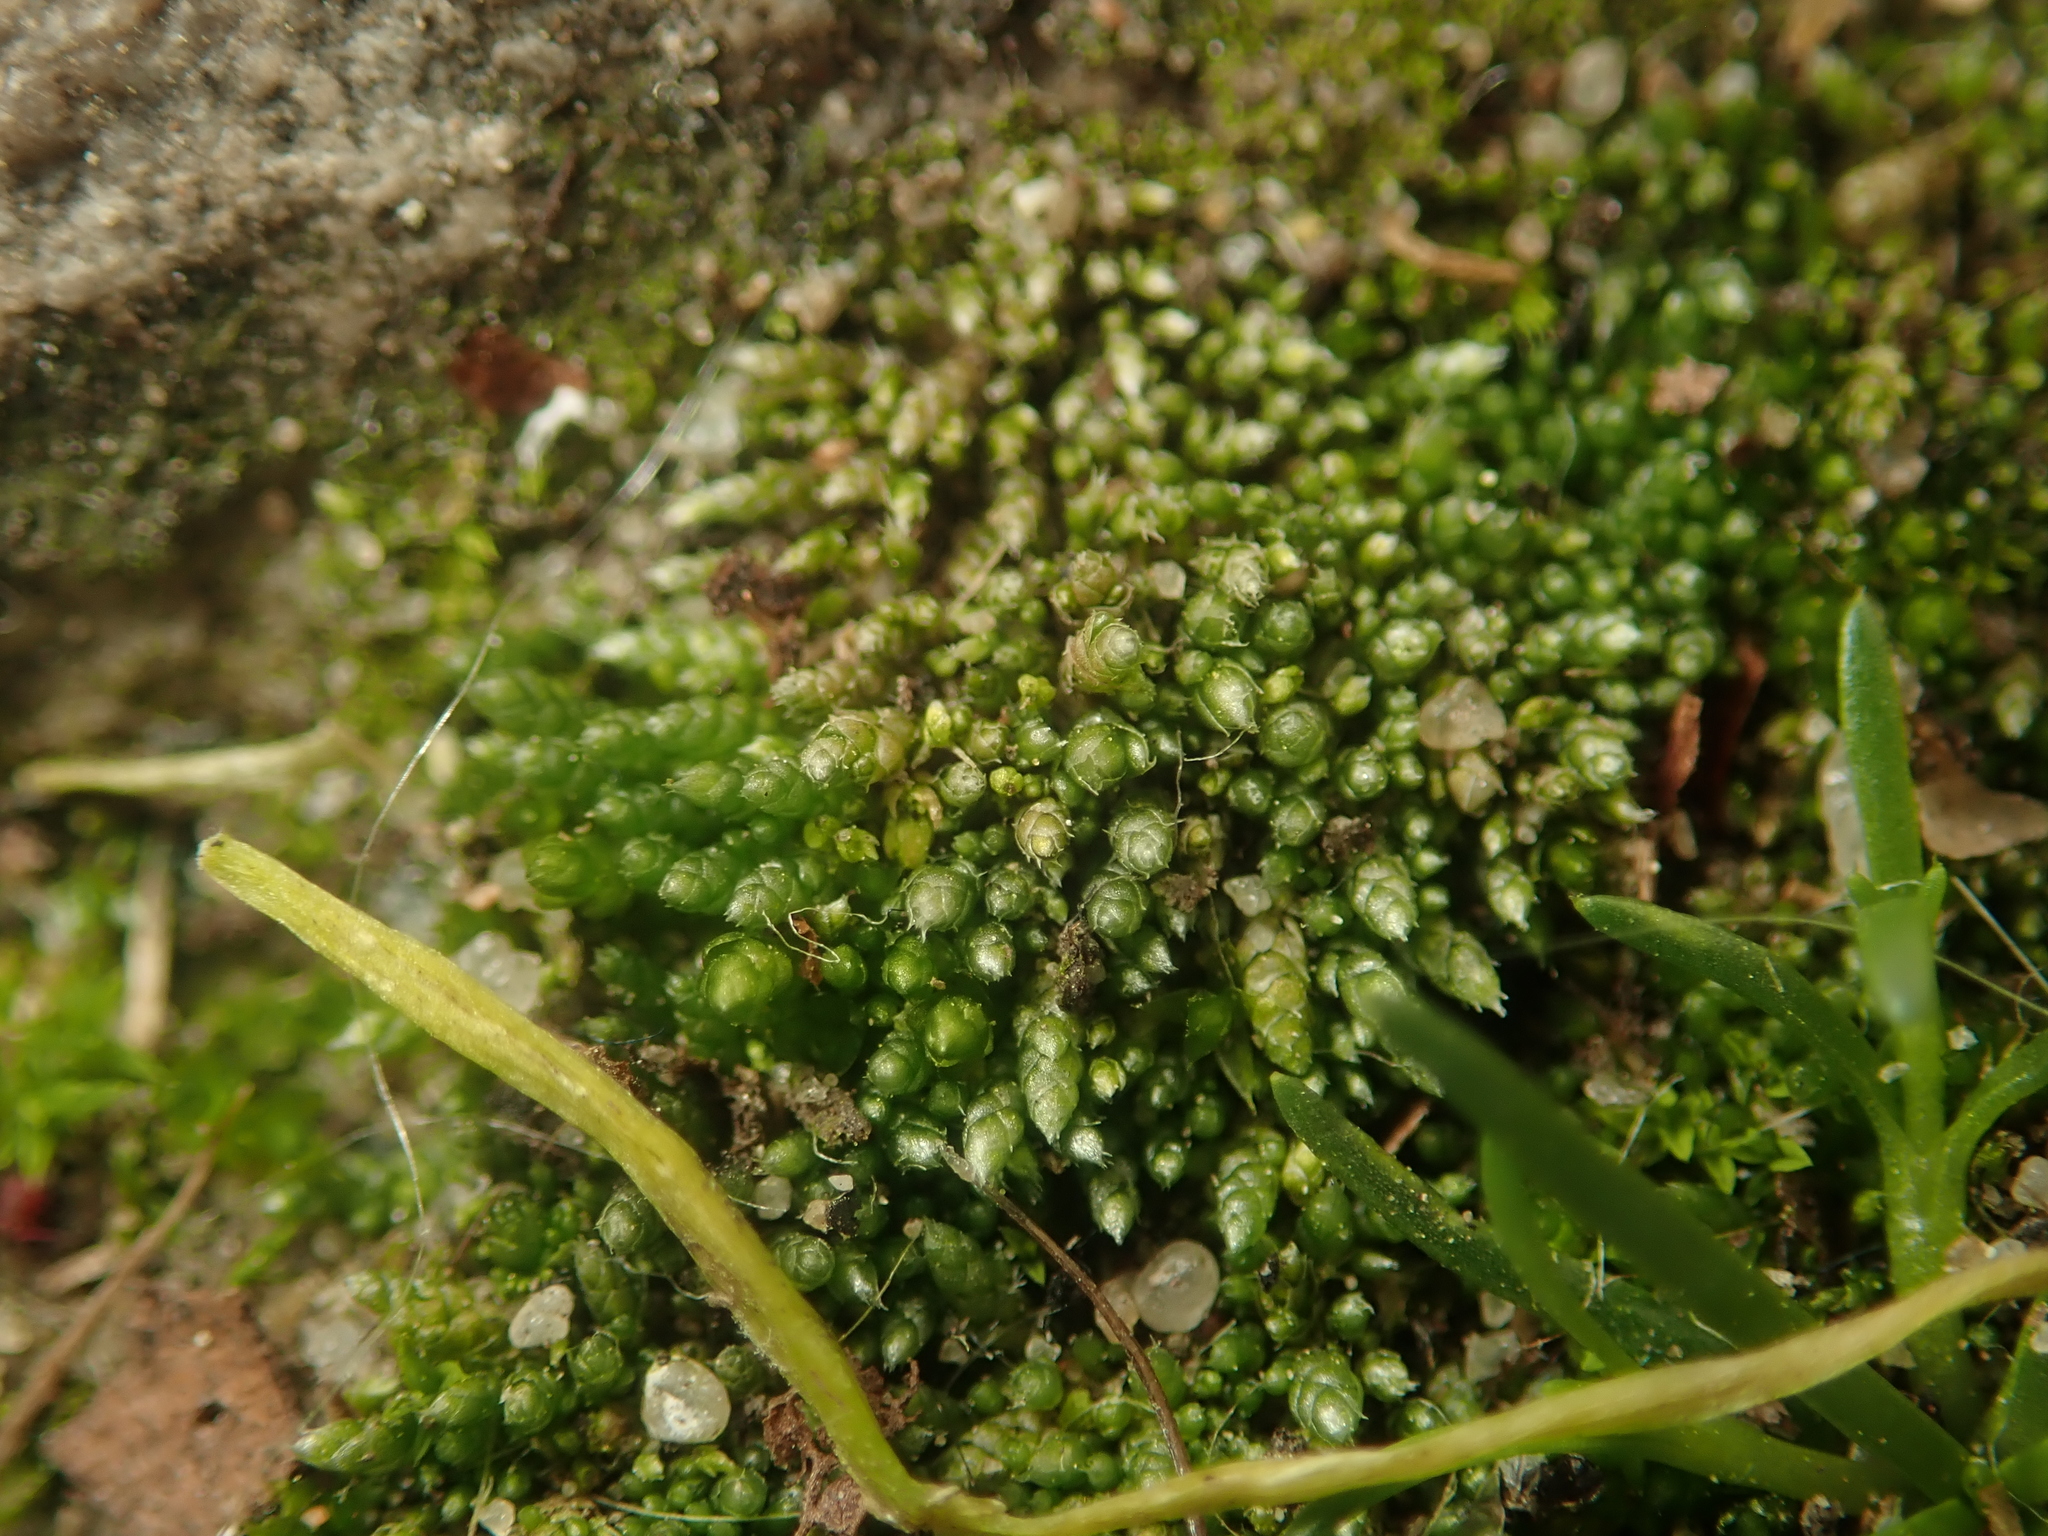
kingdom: Plantae
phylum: Bryophyta
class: Bryopsida
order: Bryales
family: Bryaceae
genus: Bryum
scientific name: Bryum argenteum
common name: Silver-moss
